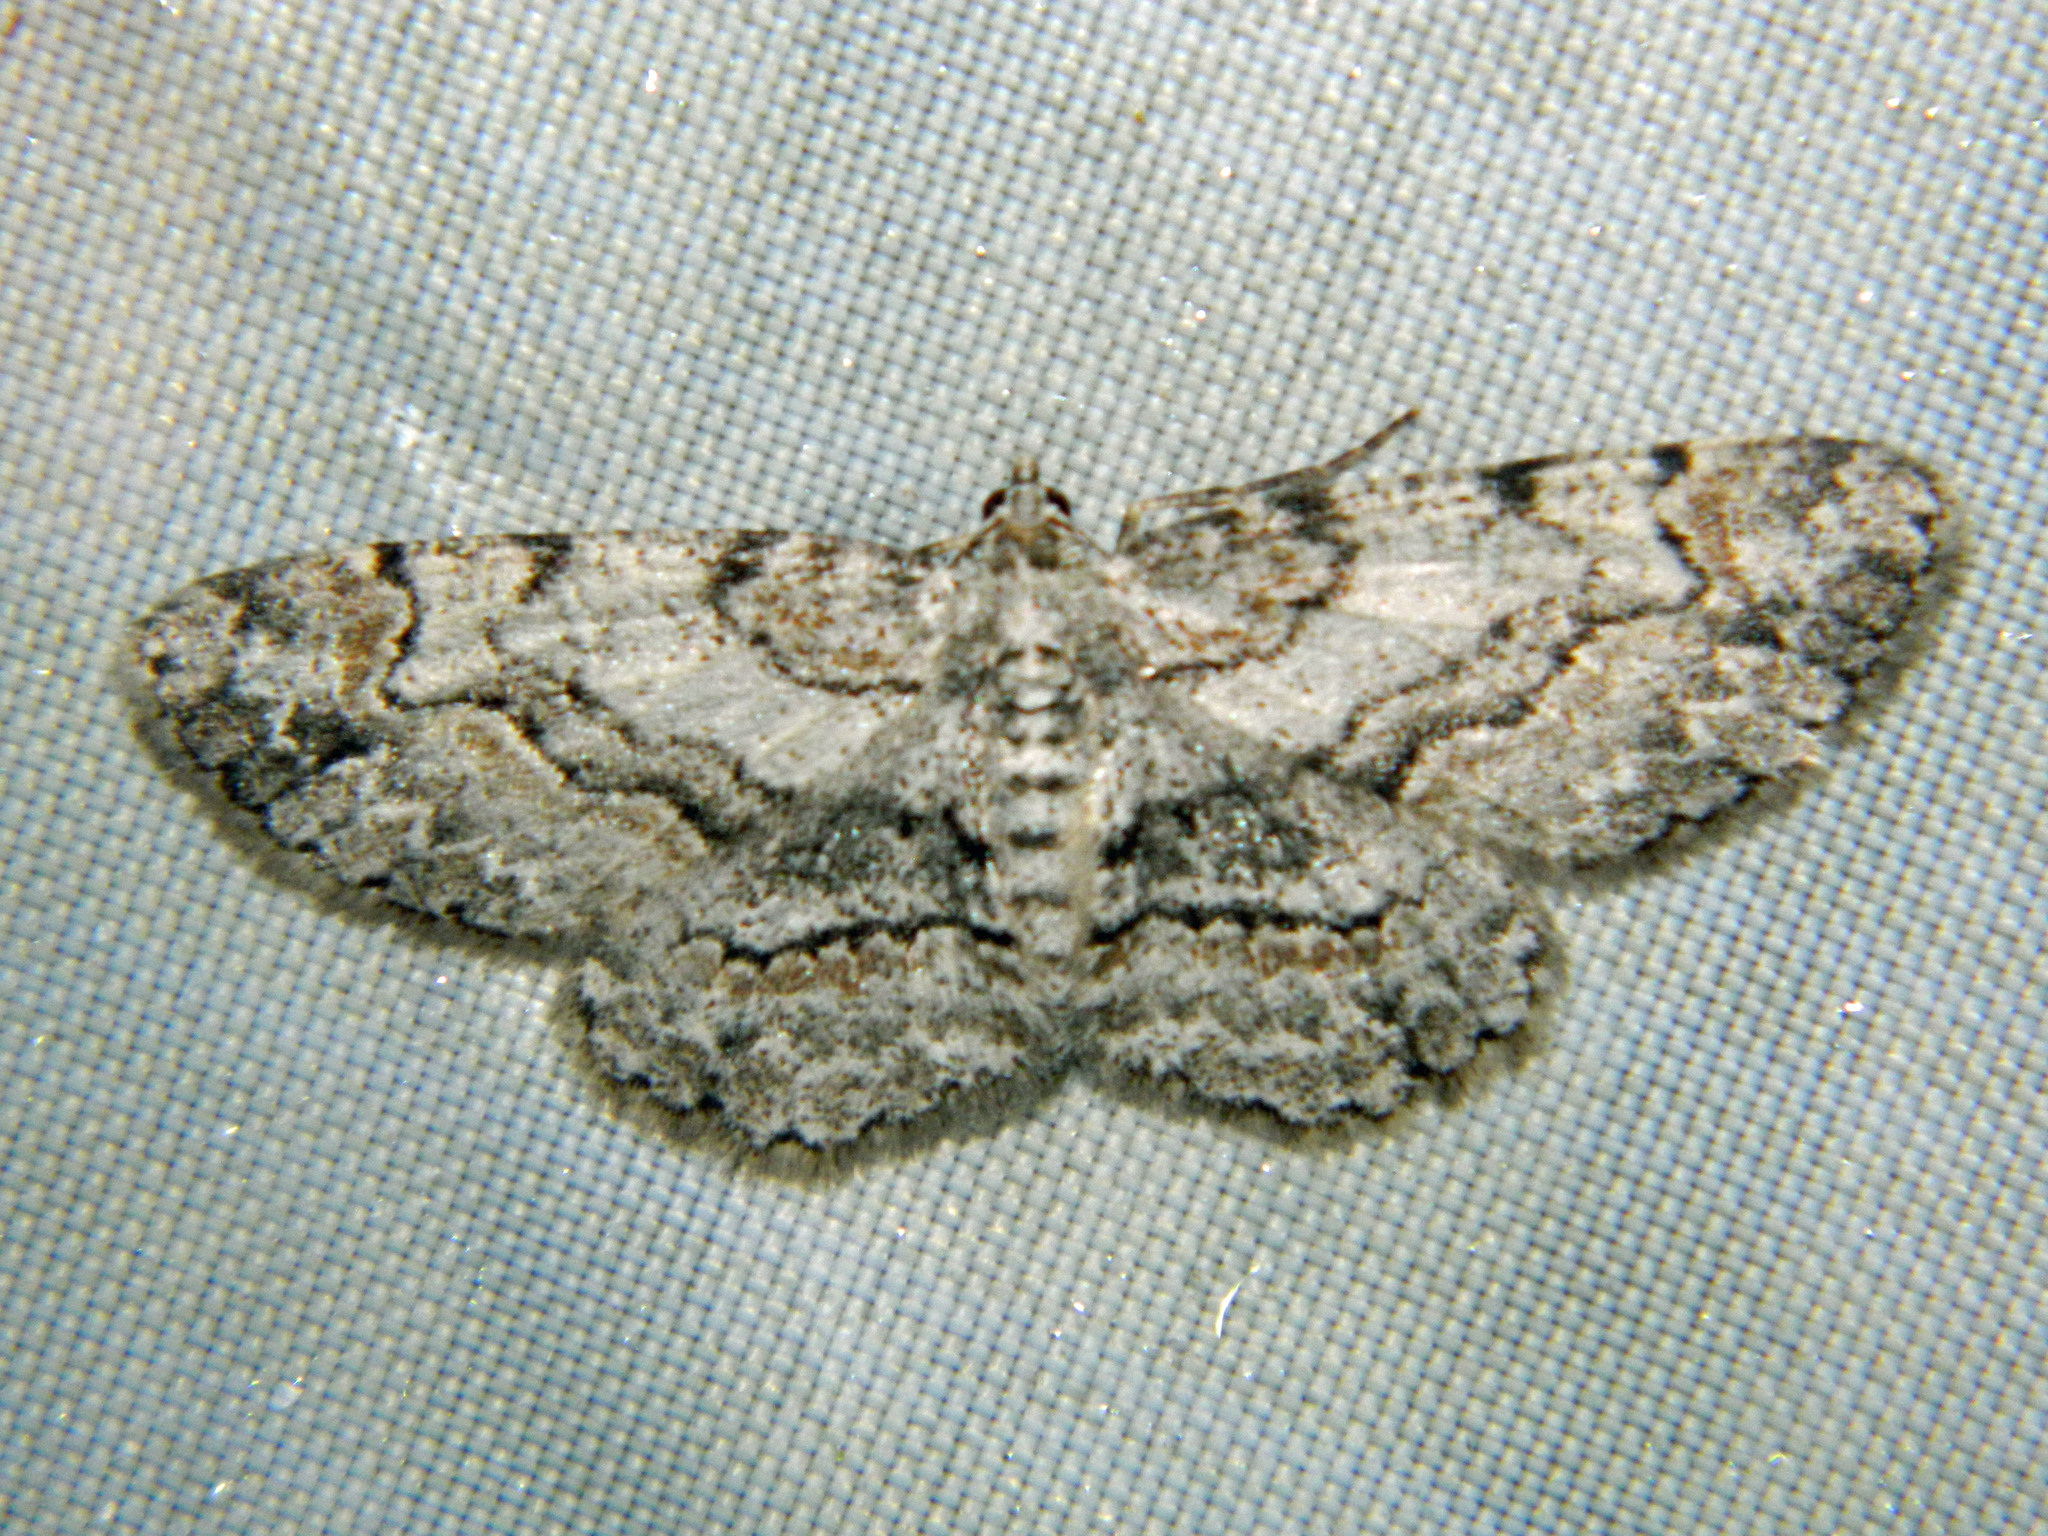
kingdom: Animalia
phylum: Arthropoda
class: Insecta
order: Lepidoptera
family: Geometridae
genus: Iridopsis
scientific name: Iridopsis ephyraria
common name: Pale-winged gray
